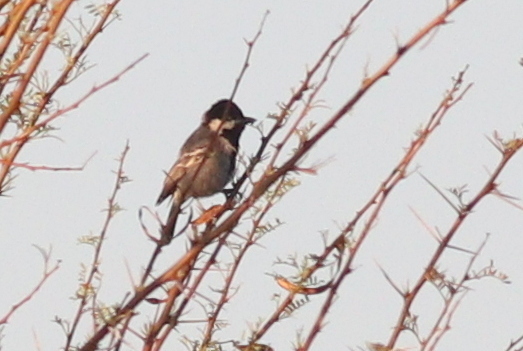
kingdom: Animalia
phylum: Chordata
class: Aves
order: Passeriformes
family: Paridae
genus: Parus
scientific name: Parus cinerascens
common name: Ashy tit
